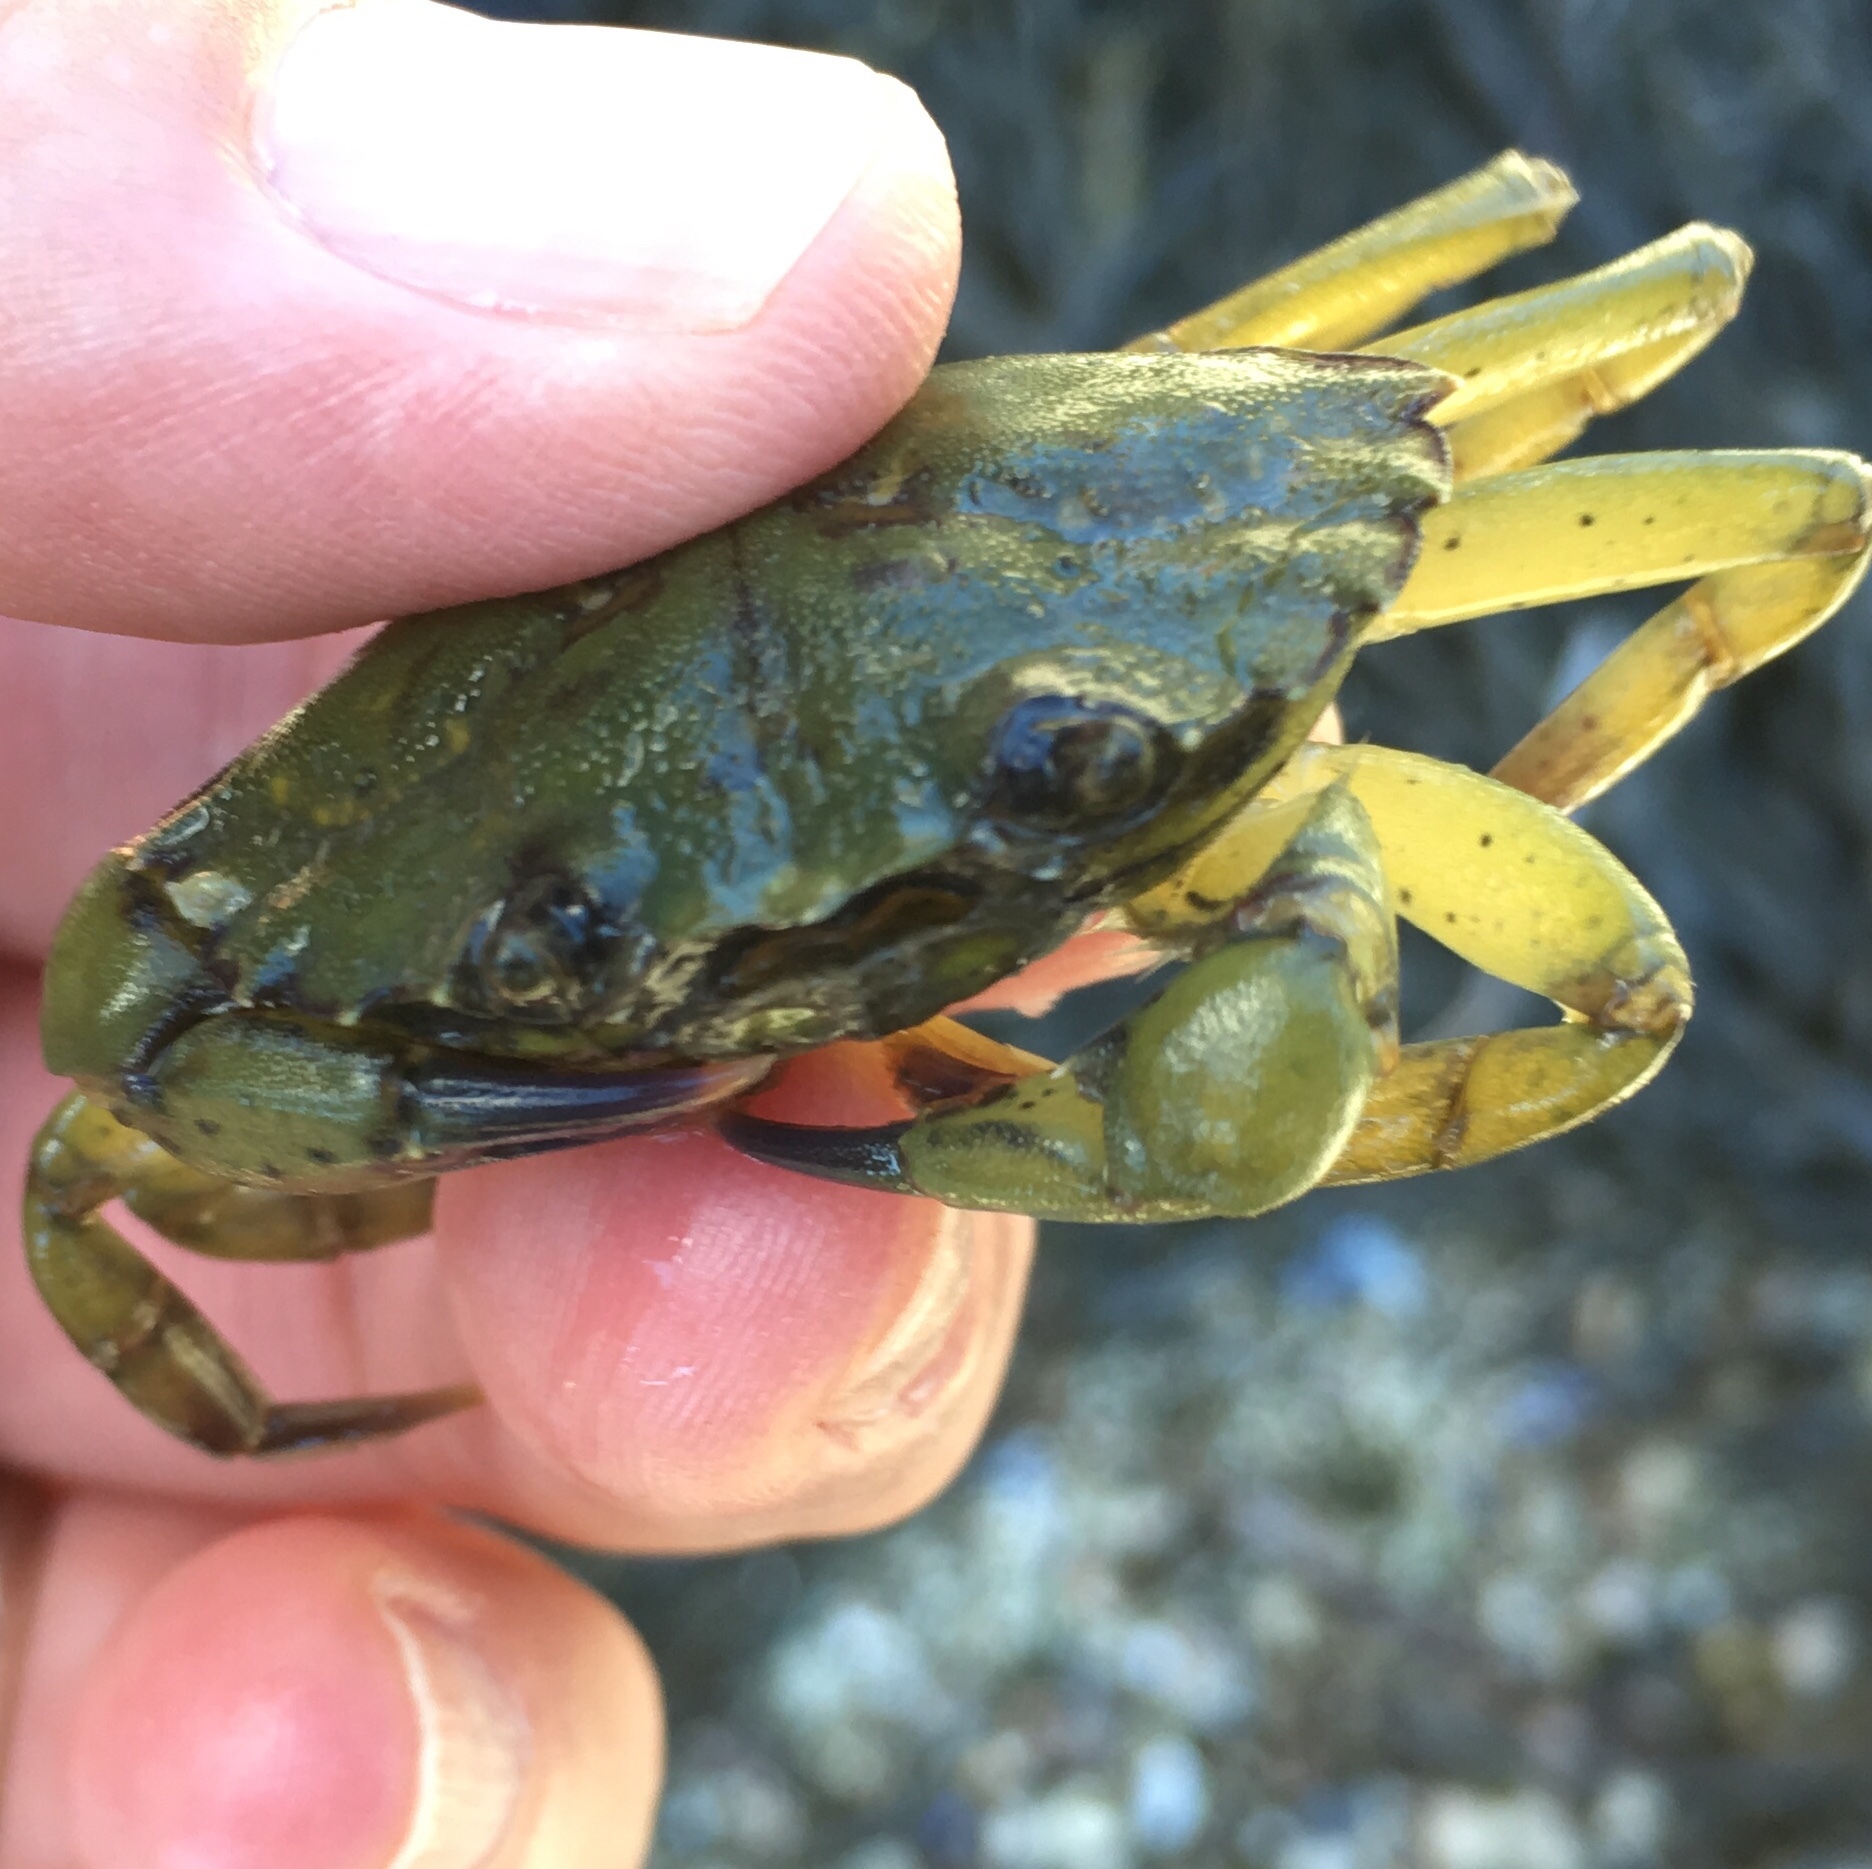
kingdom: Animalia
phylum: Arthropoda
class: Malacostraca
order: Decapoda
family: Carcinidae
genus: Carcinus
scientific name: Carcinus maenas
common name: European green crab
